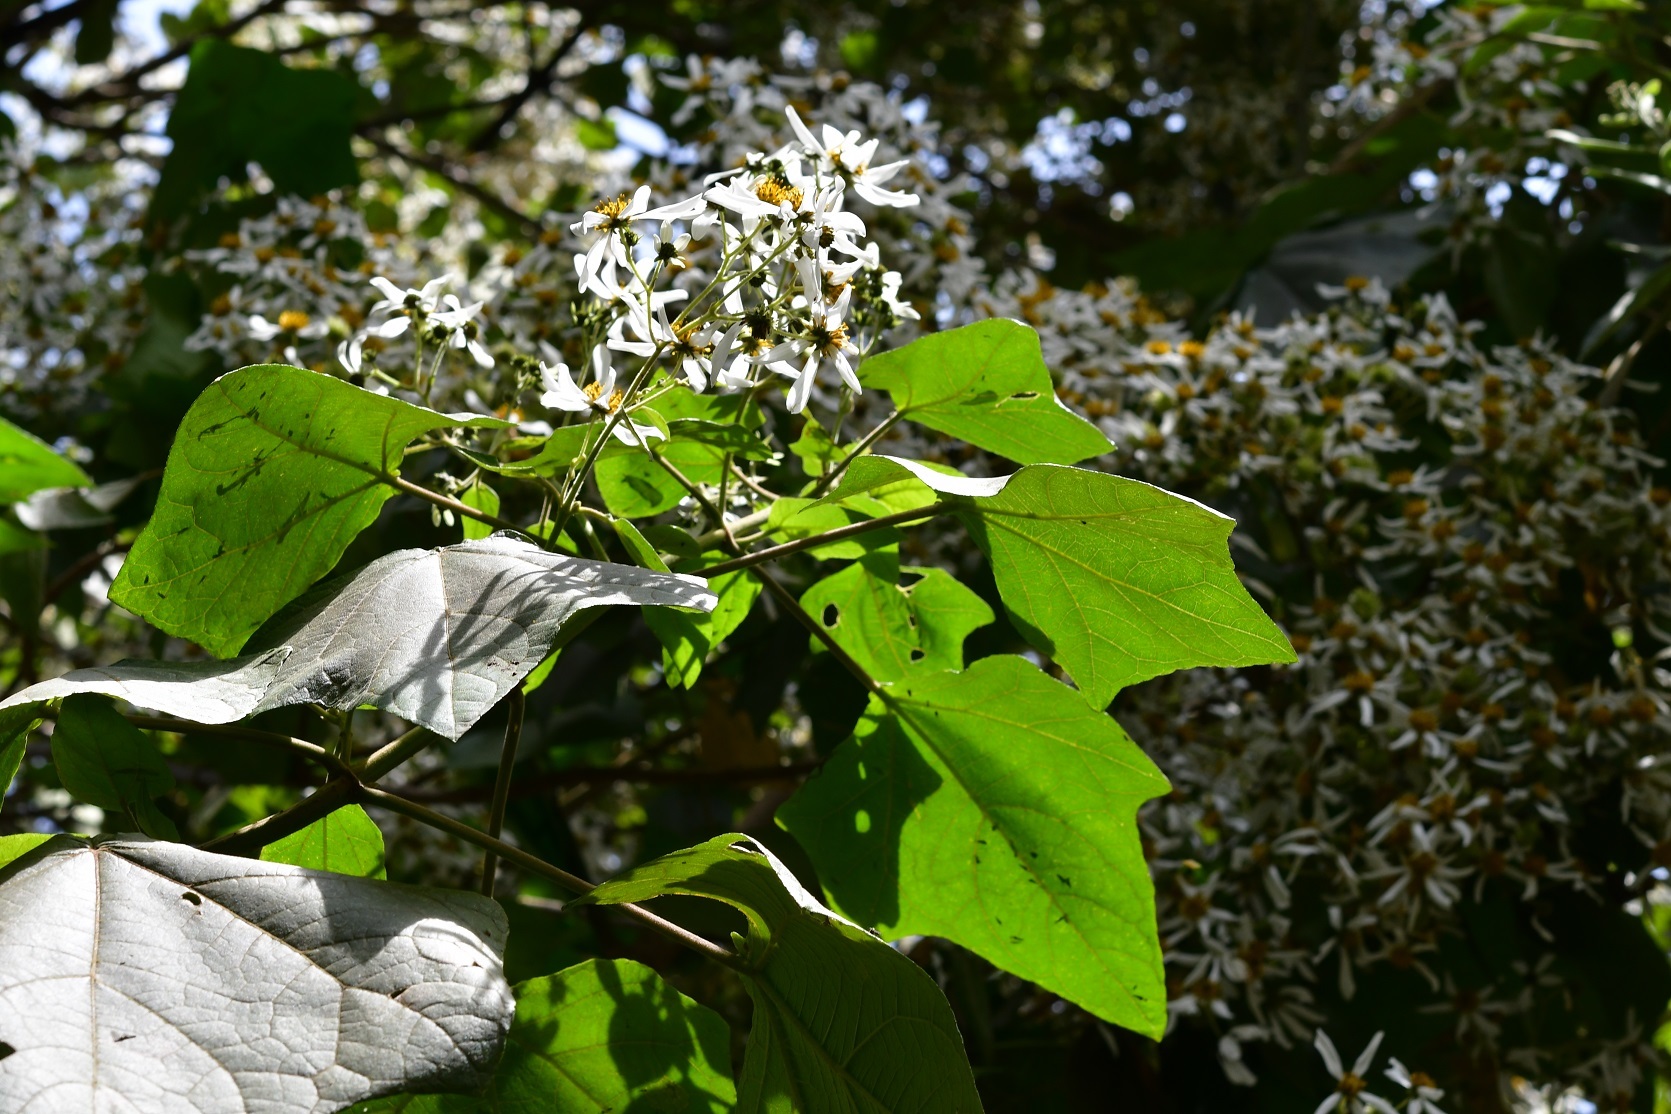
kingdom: Plantae
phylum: Tracheophyta
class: Magnoliopsida
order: Asterales
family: Asteraceae
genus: Montanoa
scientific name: Montanoa leucantha
